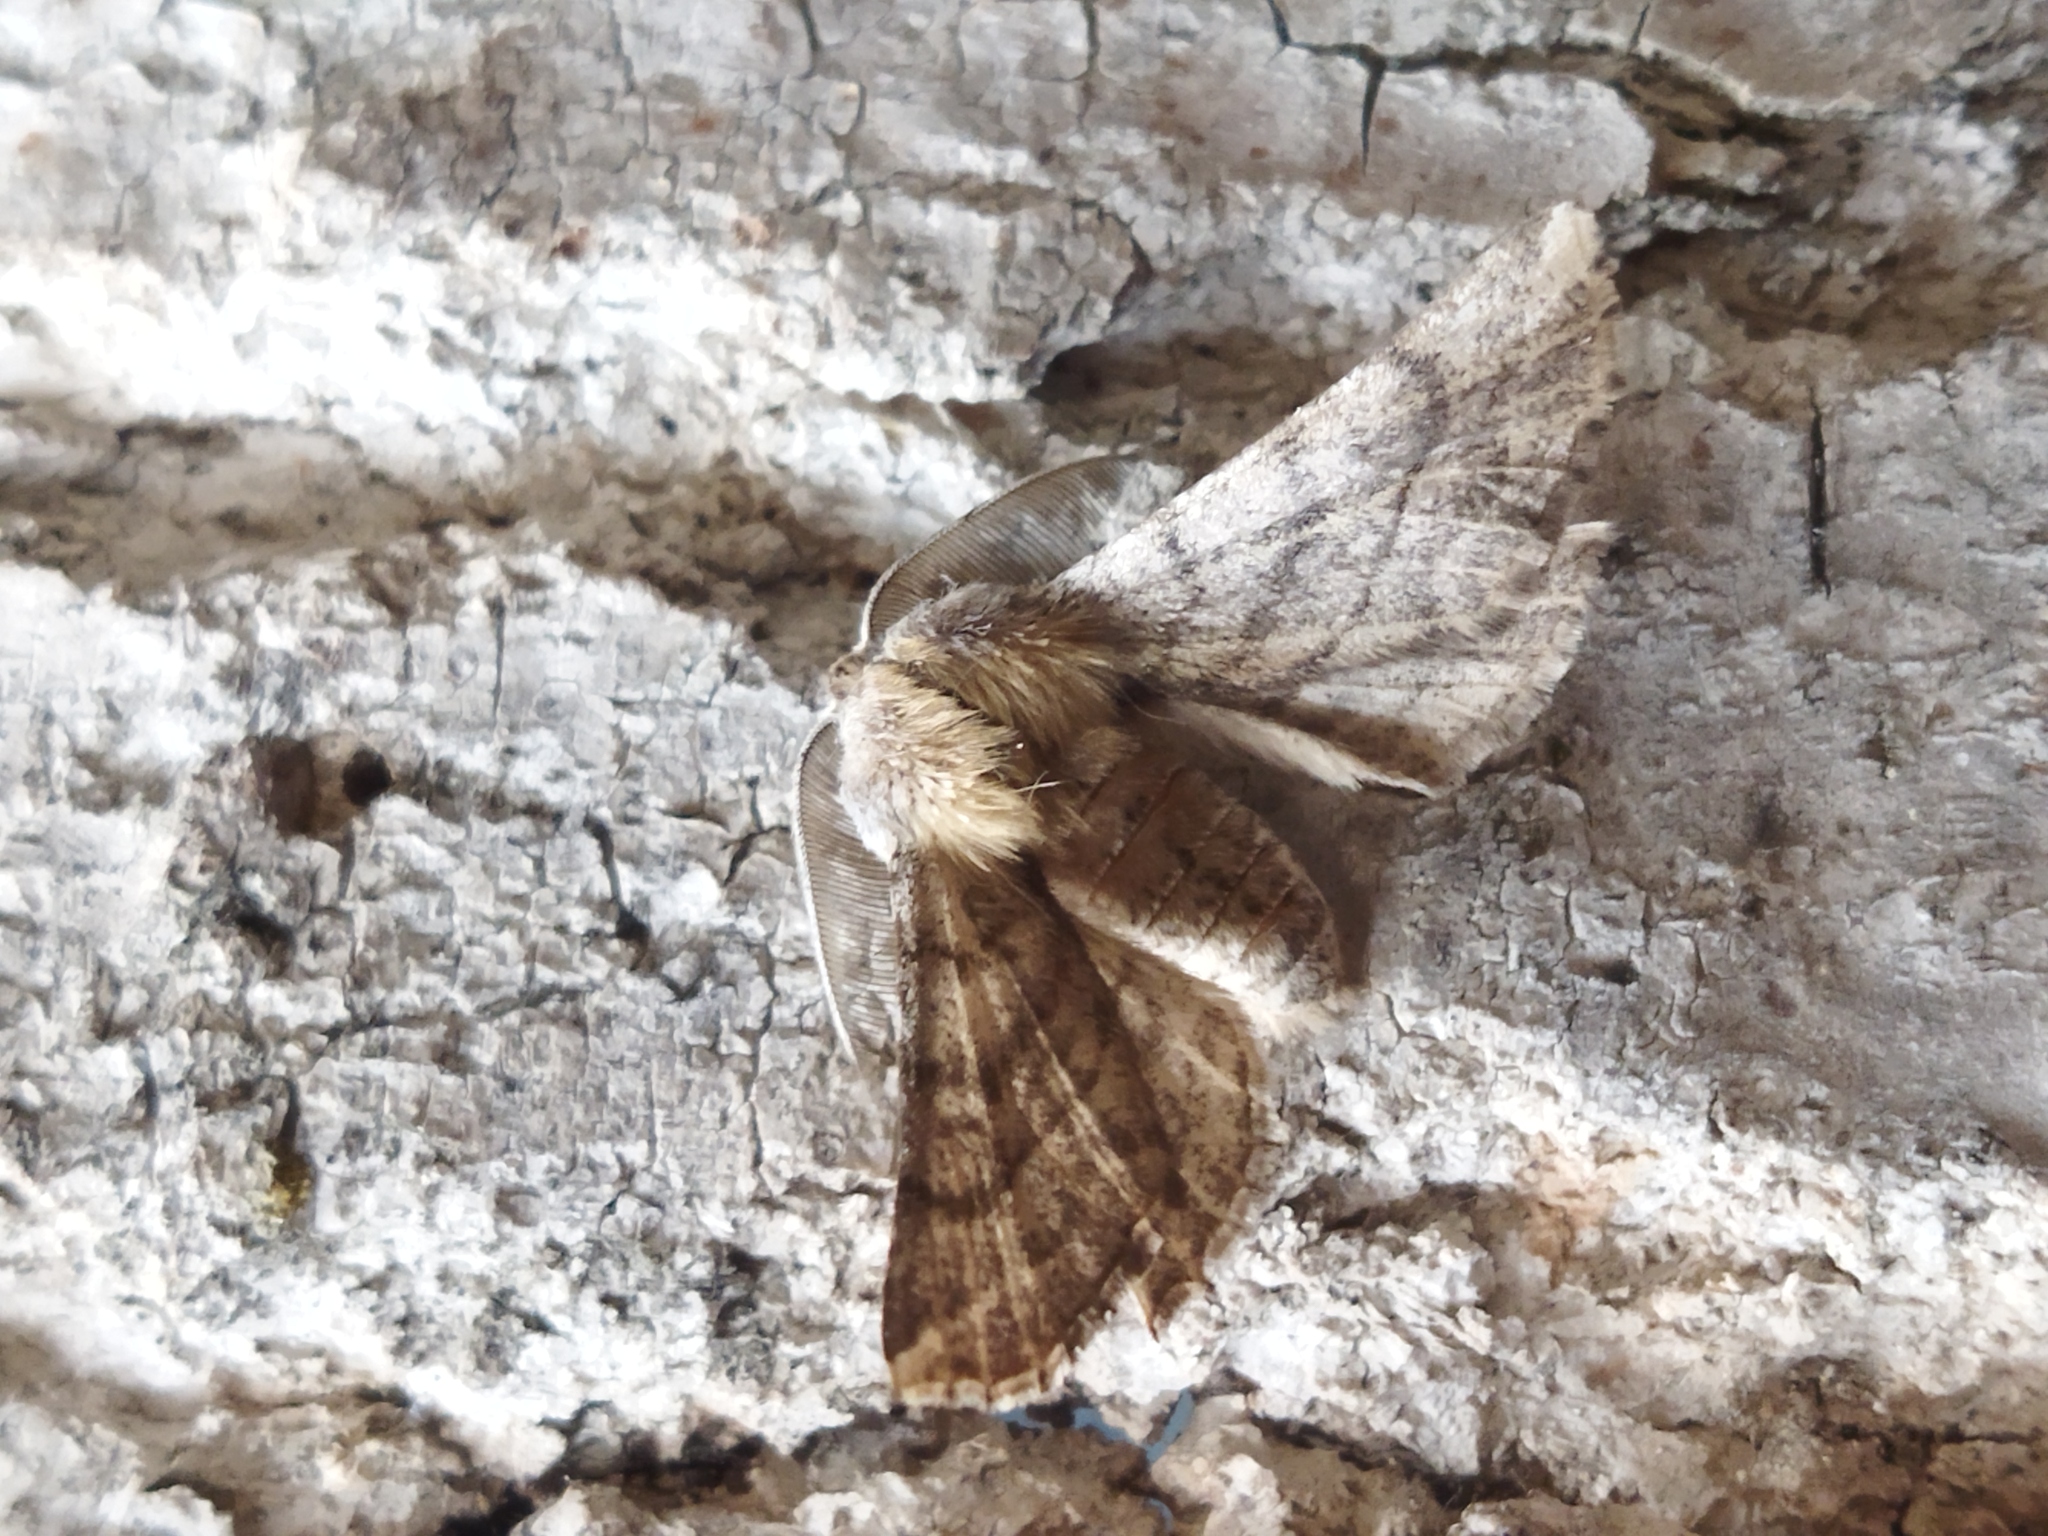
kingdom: Animalia
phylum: Arthropoda
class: Insecta
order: Lepidoptera
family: Geometridae
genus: Apochima
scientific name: Apochima flabellaria
